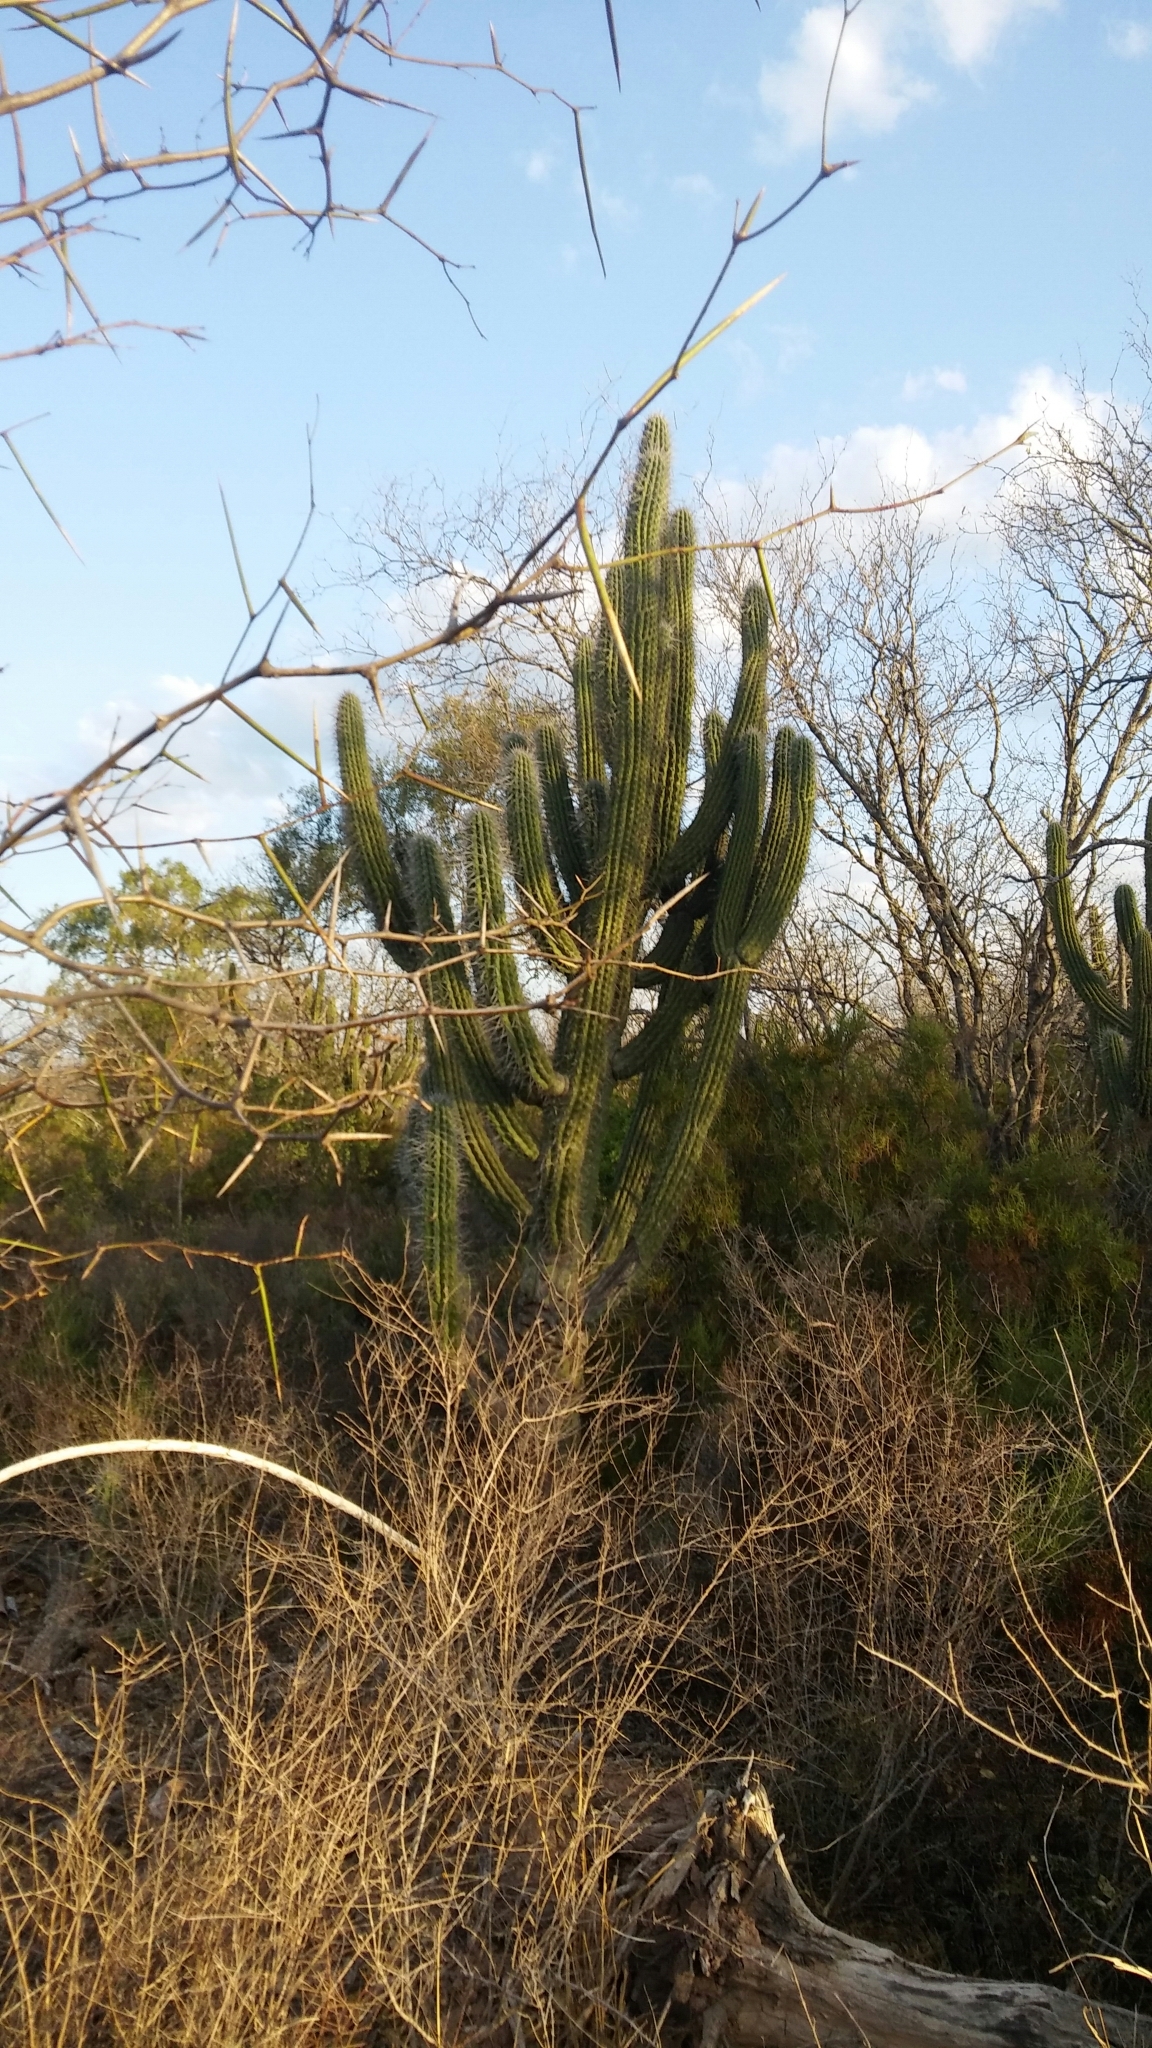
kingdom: Plantae
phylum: Tracheophyta
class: Magnoliopsida
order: Caryophyllales
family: Cactaceae
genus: Stetsonia
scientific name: Stetsonia coryne
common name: Toothpick cactus
